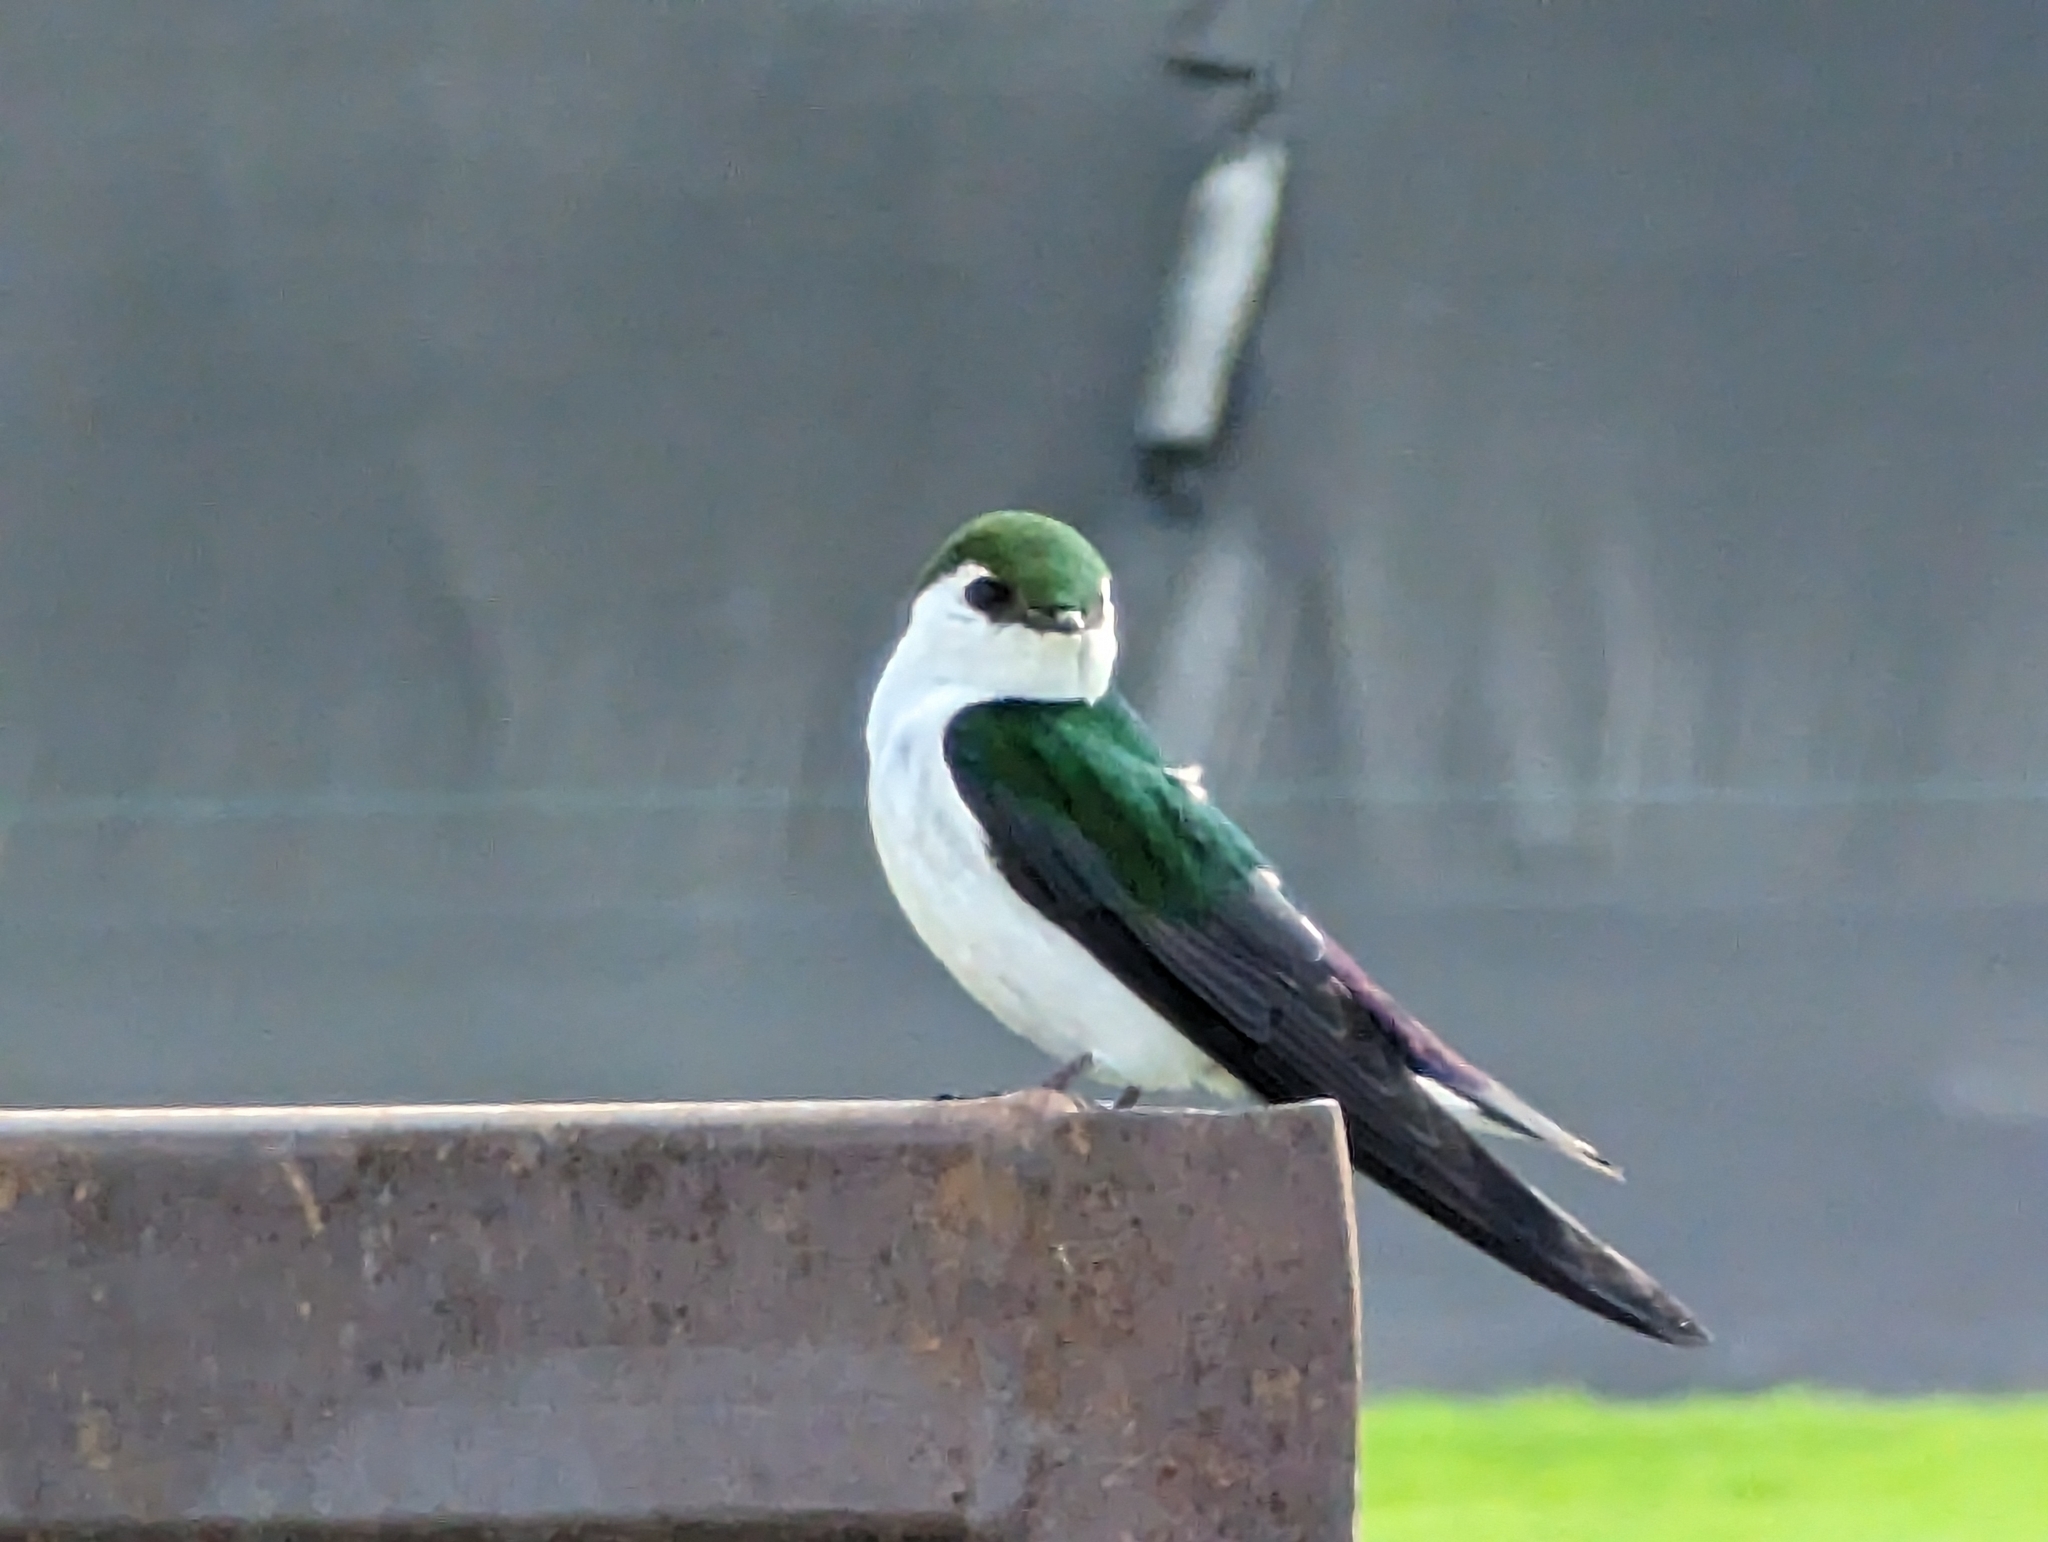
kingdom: Animalia
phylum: Chordata
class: Aves
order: Passeriformes
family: Hirundinidae
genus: Tachycineta
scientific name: Tachycineta thalassina
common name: Violet-green swallow
